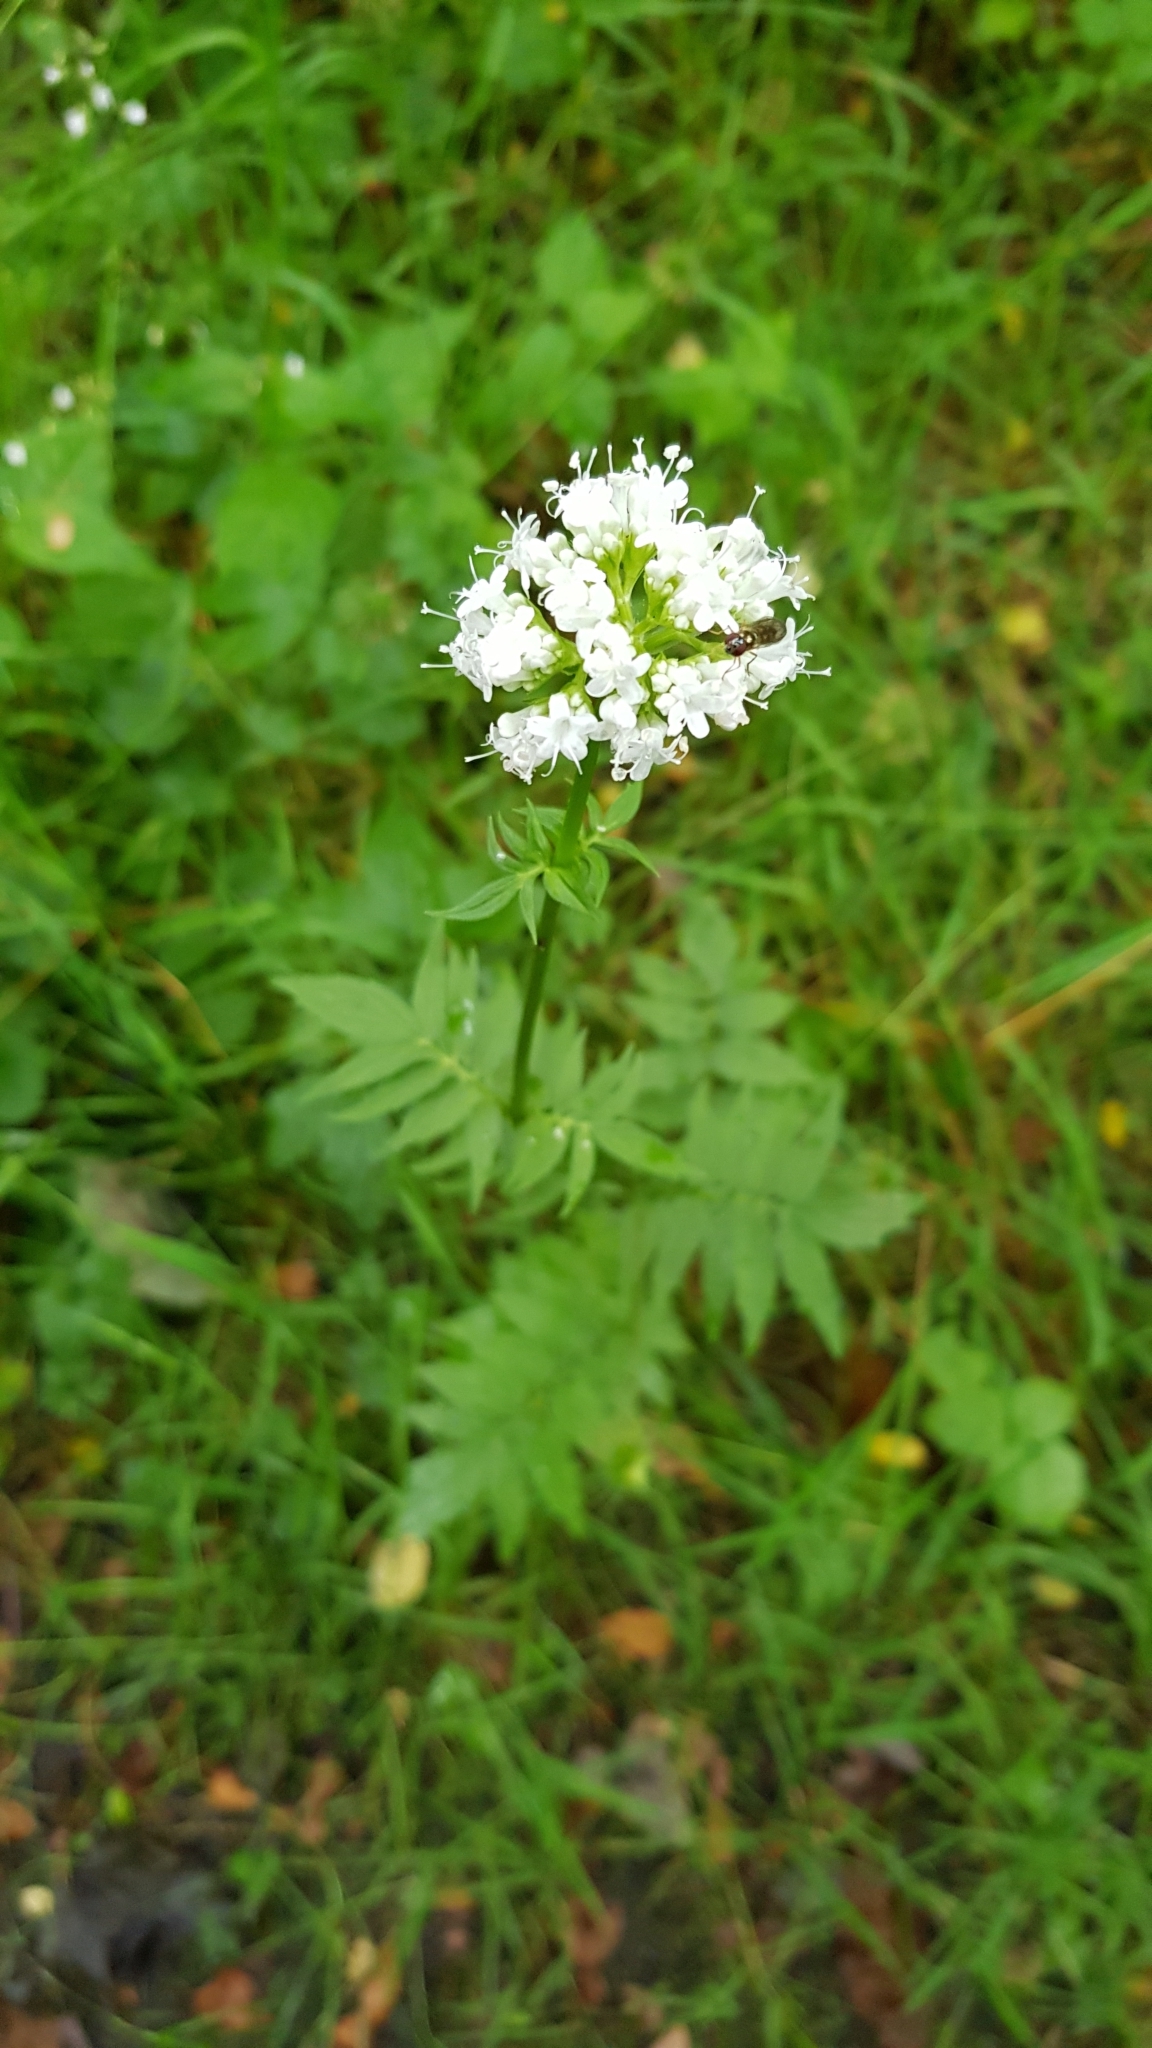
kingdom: Plantae
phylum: Tracheophyta
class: Magnoliopsida
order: Dipsacales
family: Caprifoliaceae
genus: Valeriana
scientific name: Valeriana officinalis
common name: Common valerian
